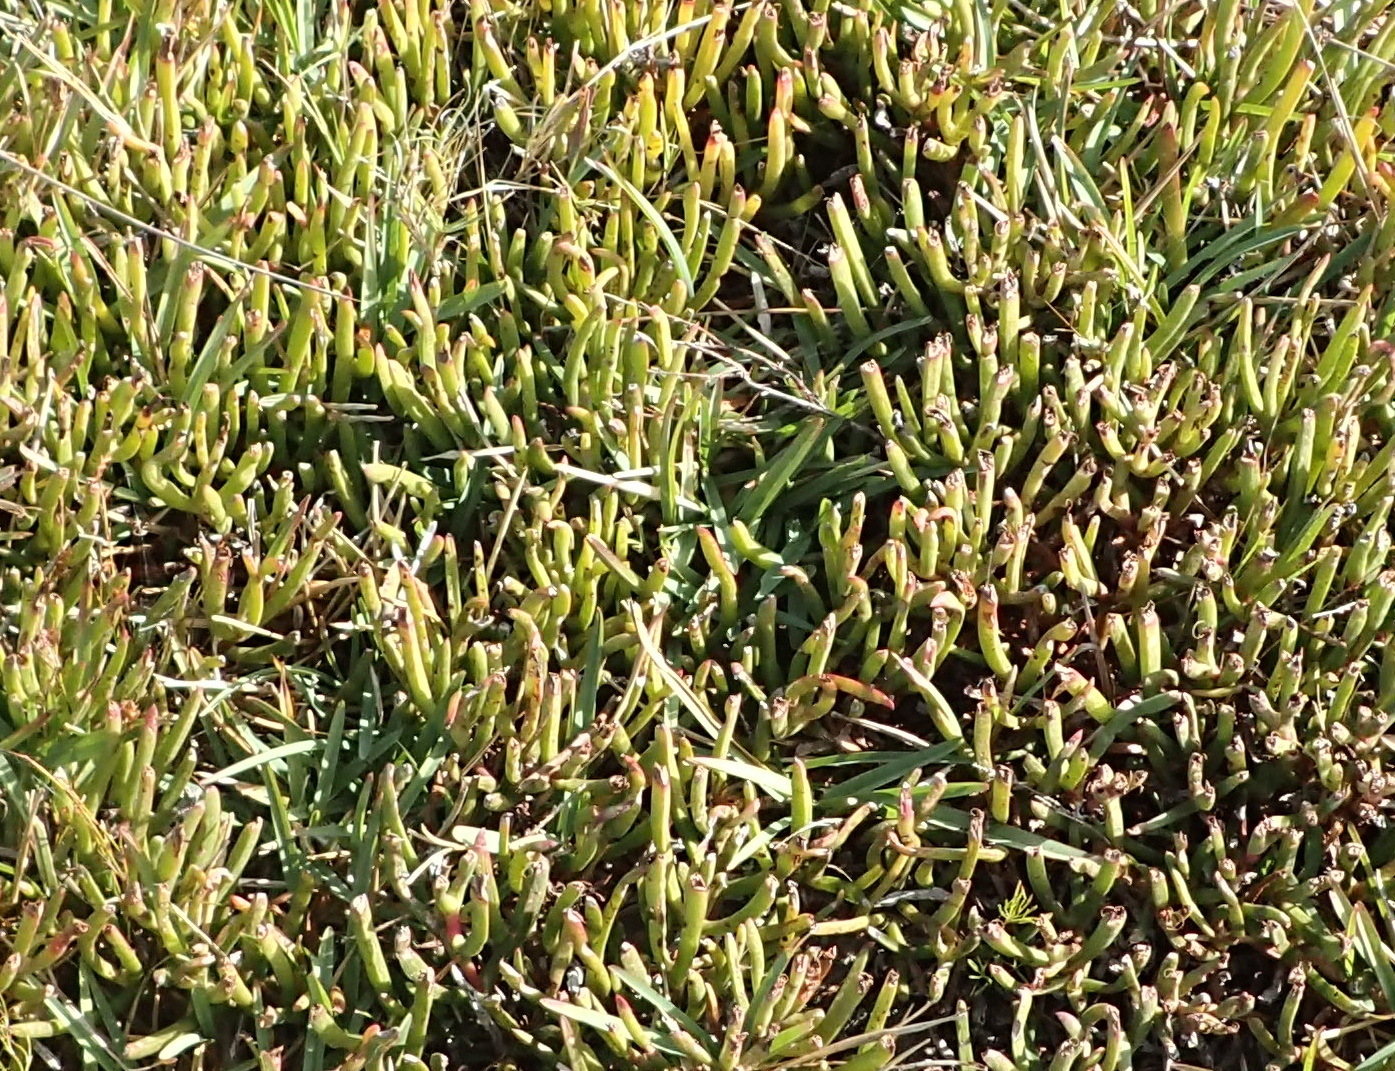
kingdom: Plantae
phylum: Tracheophyta
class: Magnoliopsida
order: Caryophyllales
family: Aizoaceae
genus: Carpobrotus
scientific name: Carpobrotus muirii
